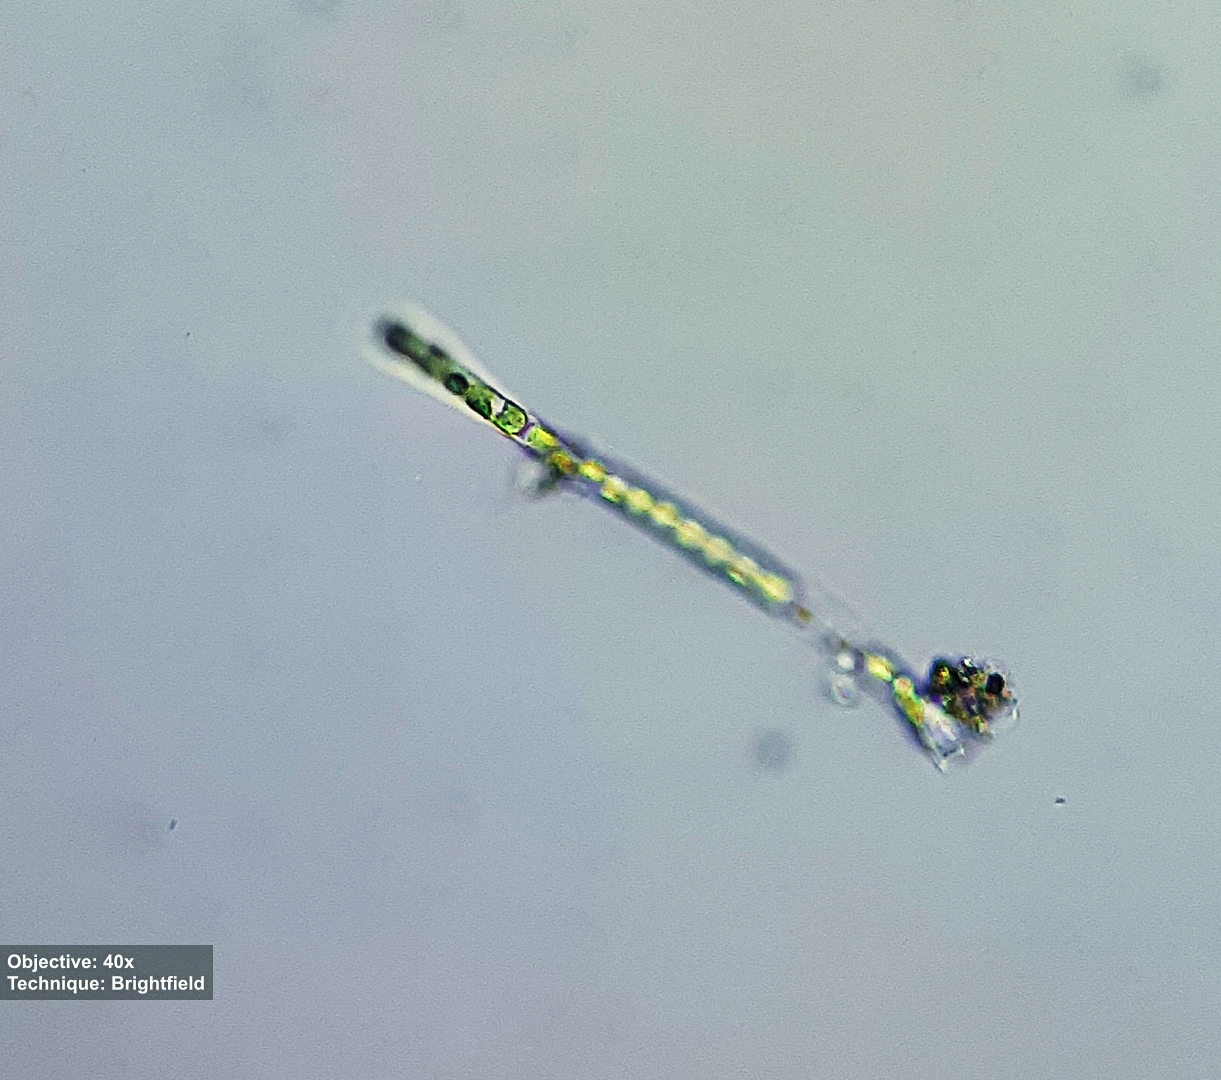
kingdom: Plantae
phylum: Charophyta
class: Klebsormidiophyceae
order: Klebsormidiales
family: Klebsormidiaceae
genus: Klebsormidium
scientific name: Klebsormidium
